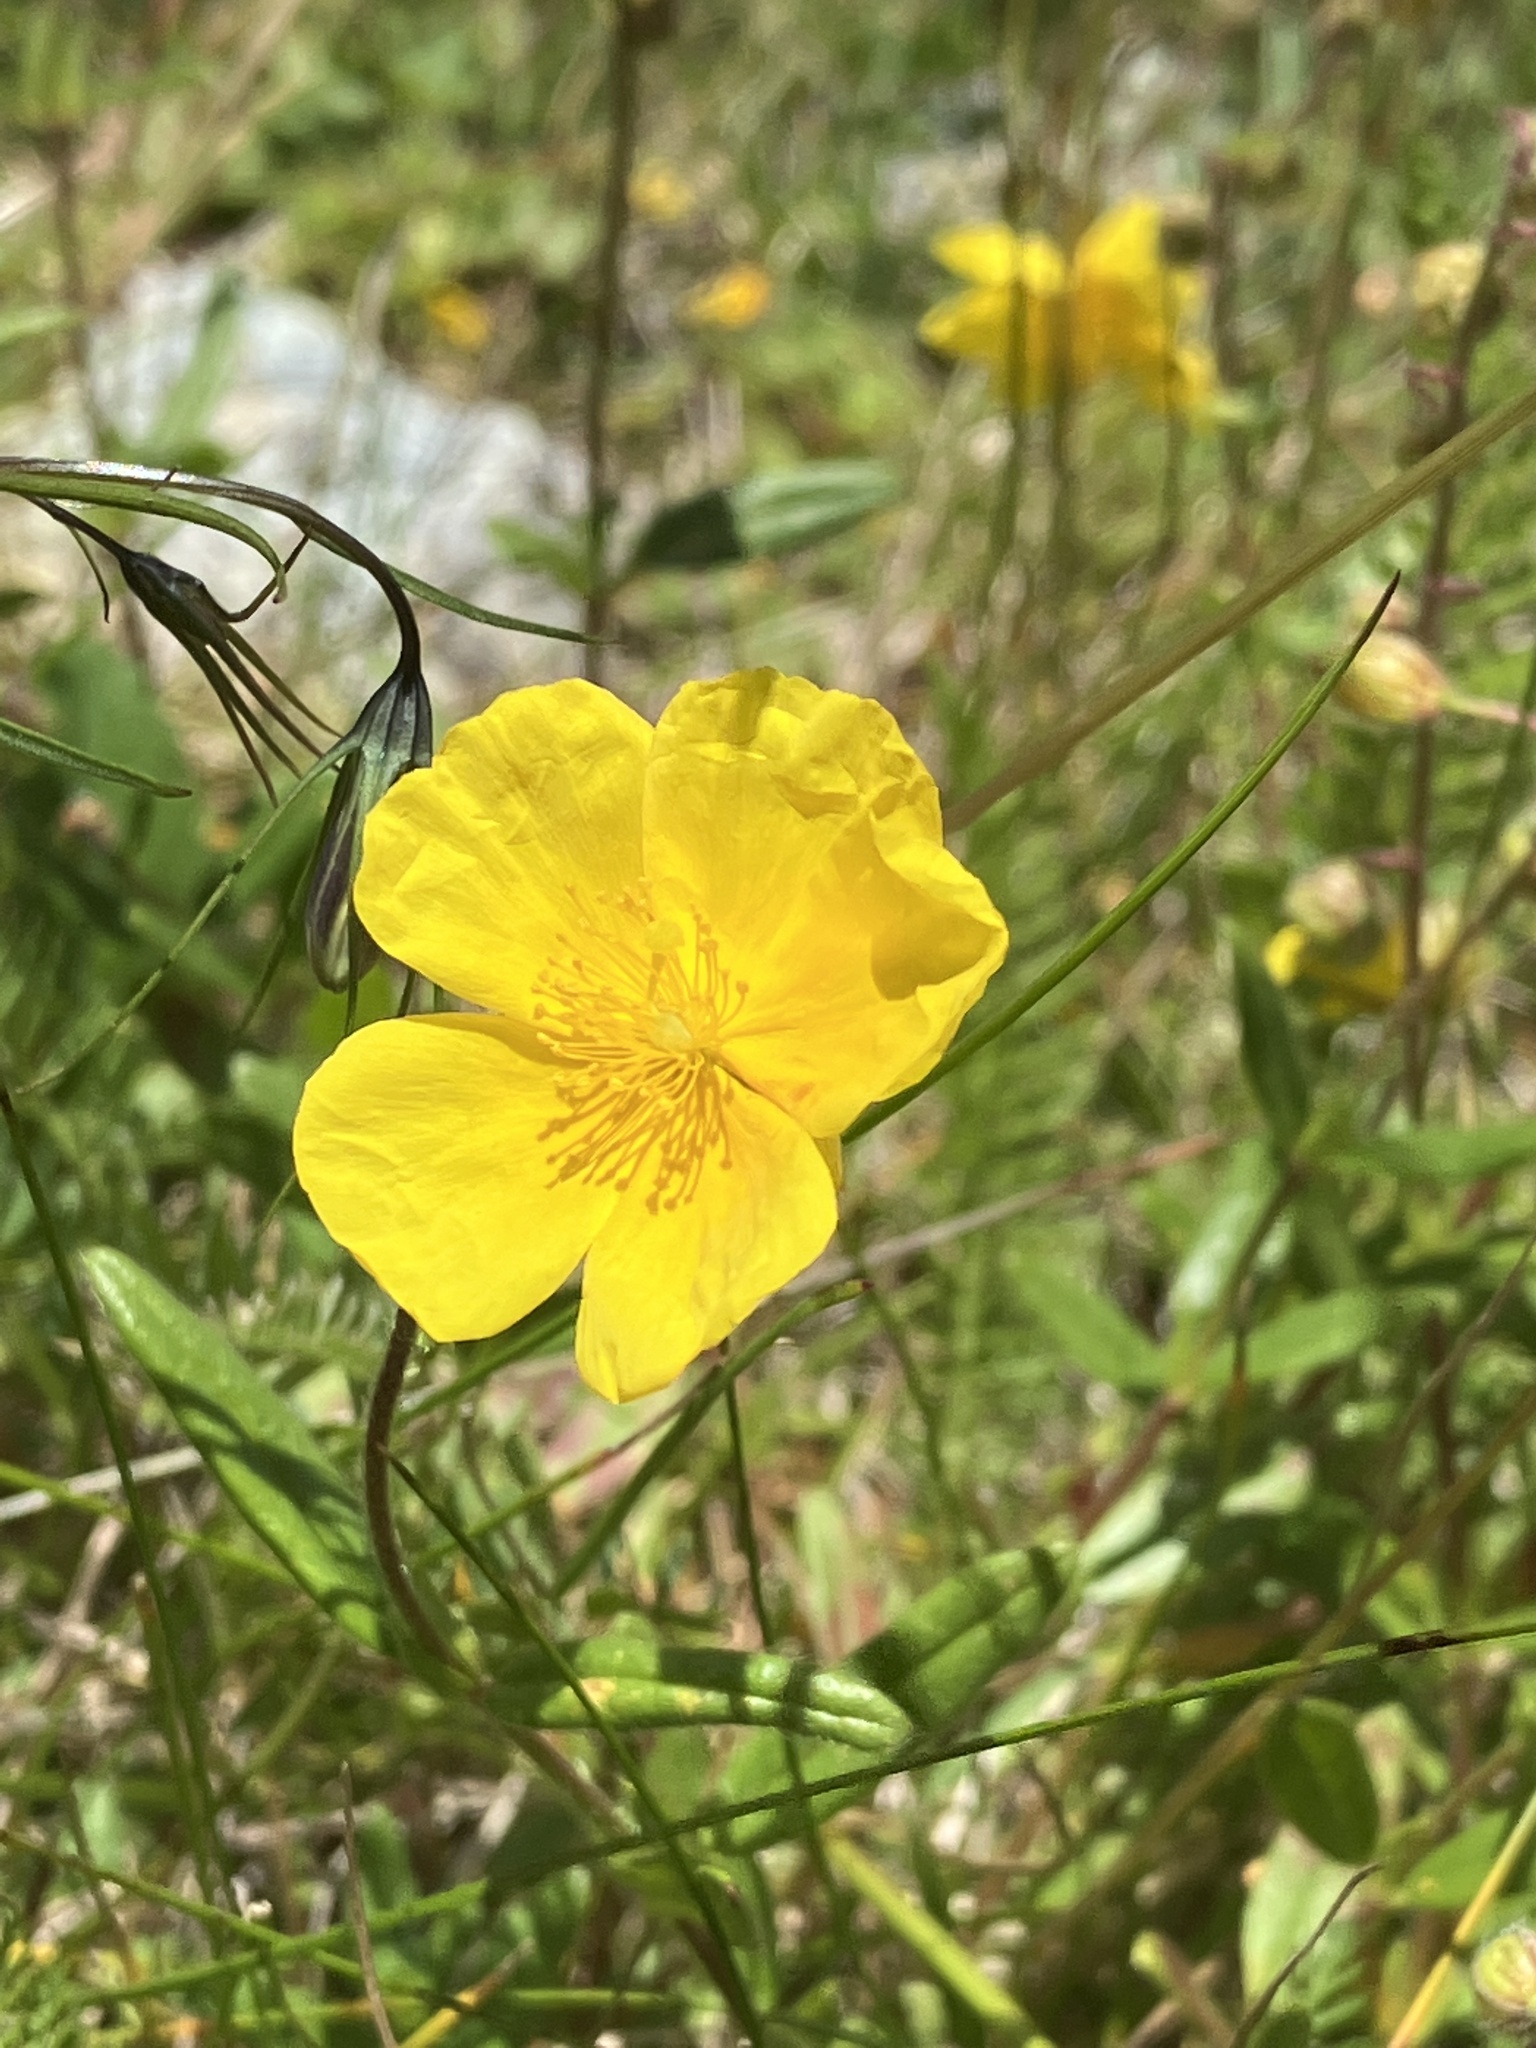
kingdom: Plantae
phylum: Tracheophyta
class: Magnoliopsida
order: Malvales
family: Cistaceae
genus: Helianthemum
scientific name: Helianthemum nummularium
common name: Common rock-rose
